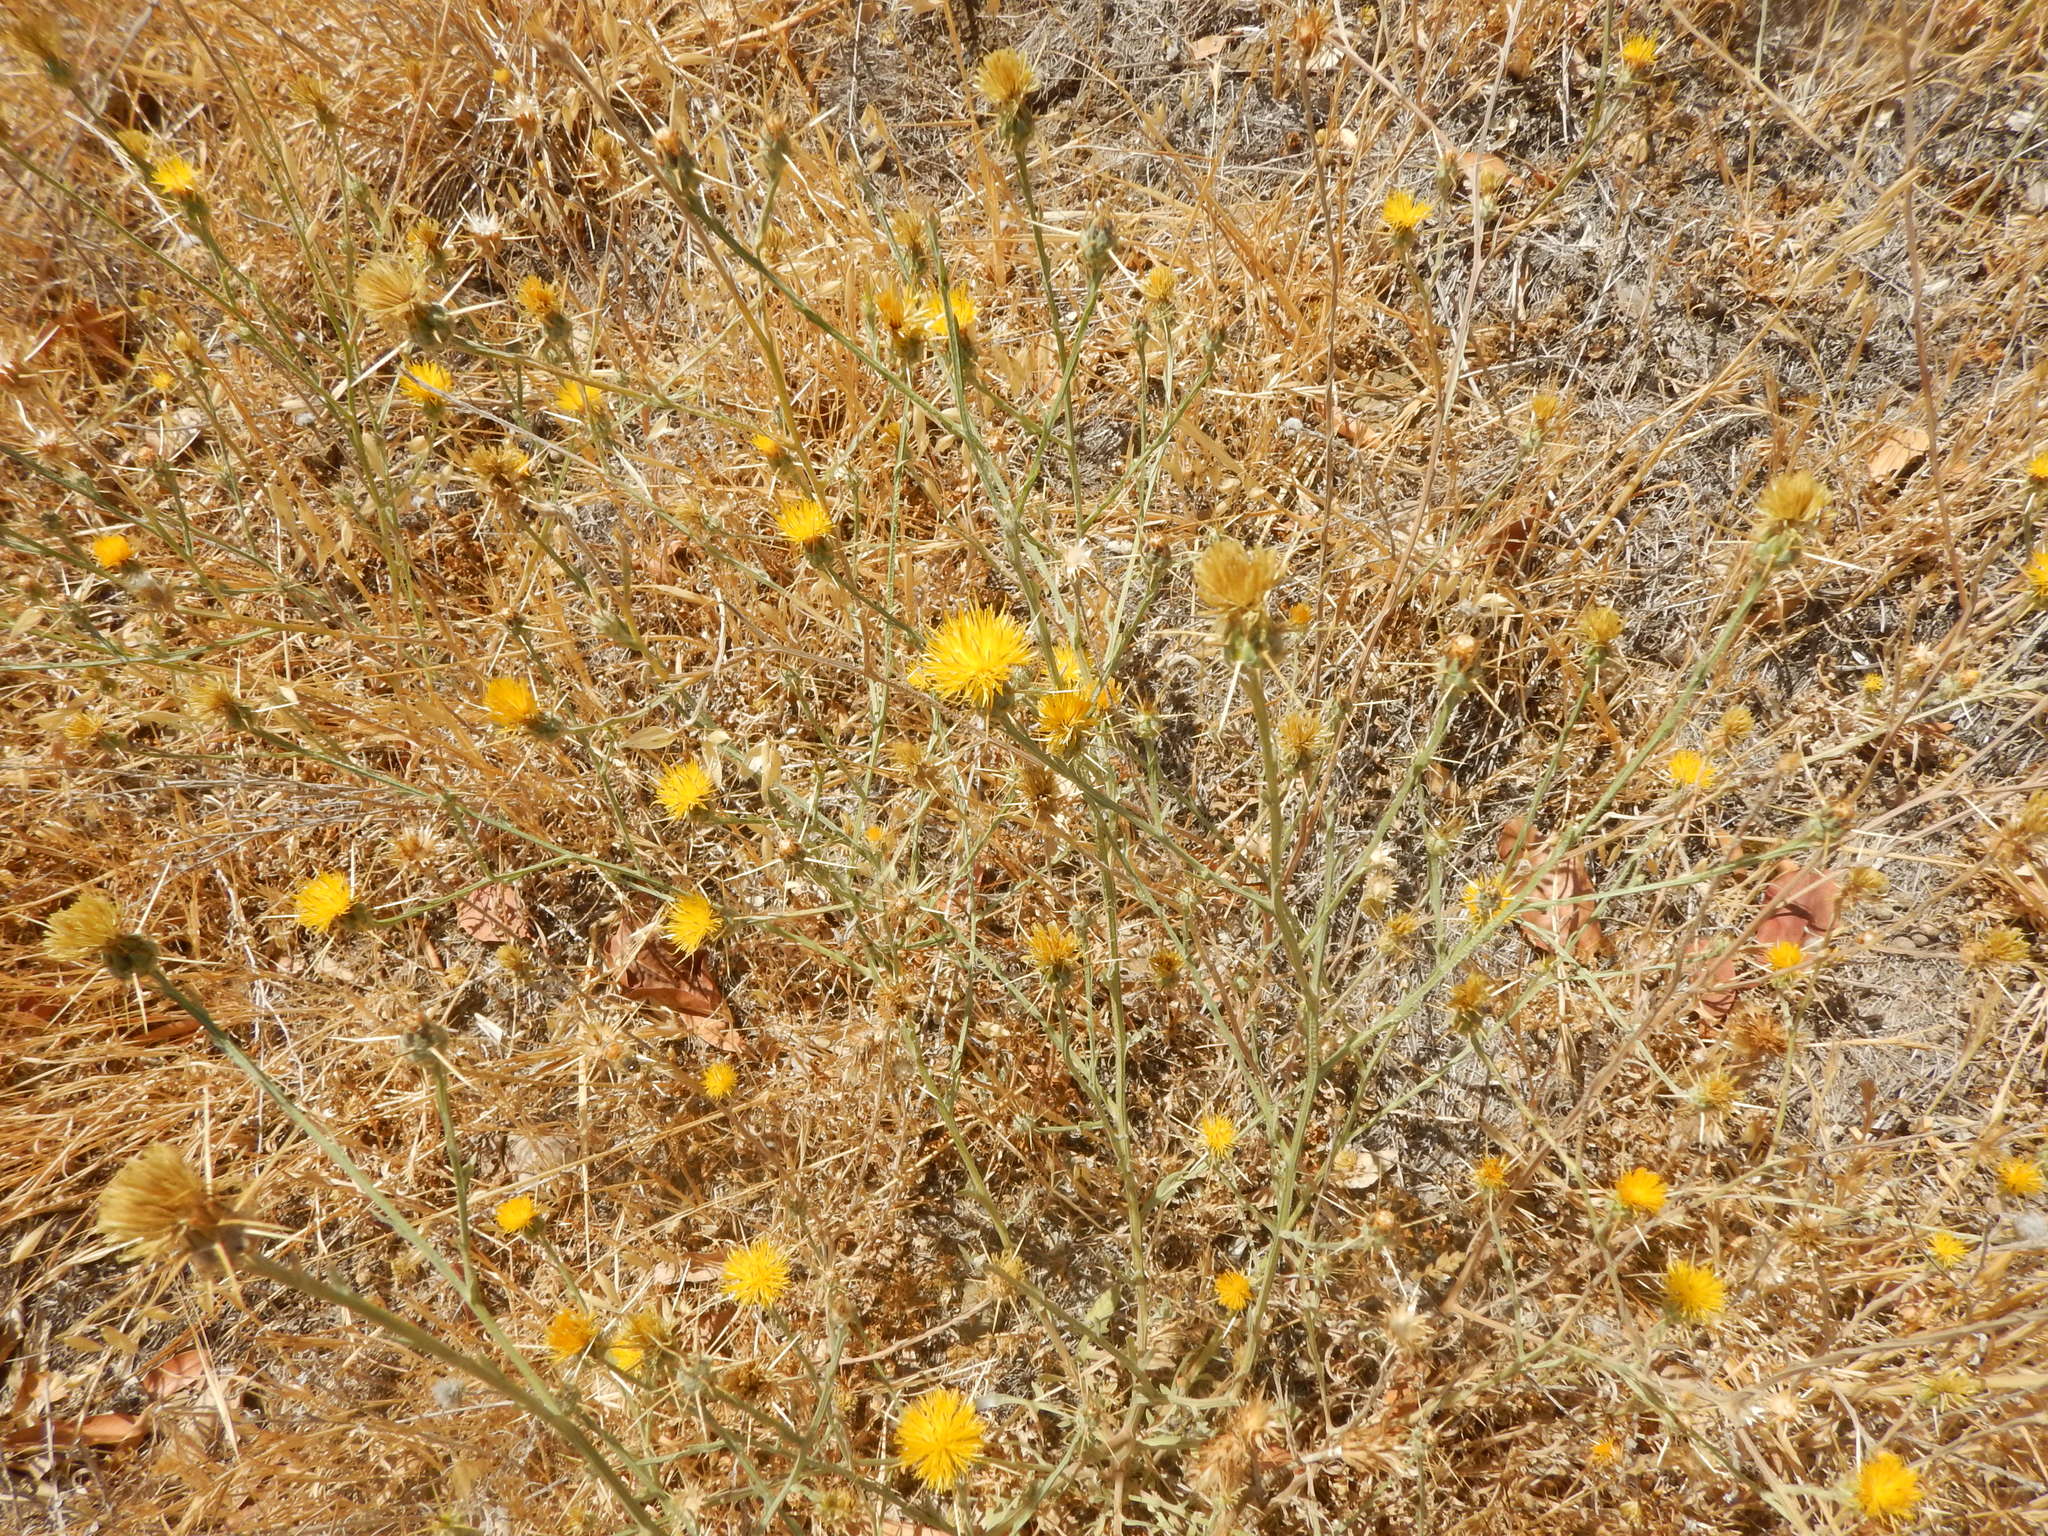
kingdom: Plantae
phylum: Tracheophyta
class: Magnoliopsida
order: Asterales
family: Asteraceae
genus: Centaurea
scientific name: Centaurea solstitialis
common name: Yellow star-thistle
